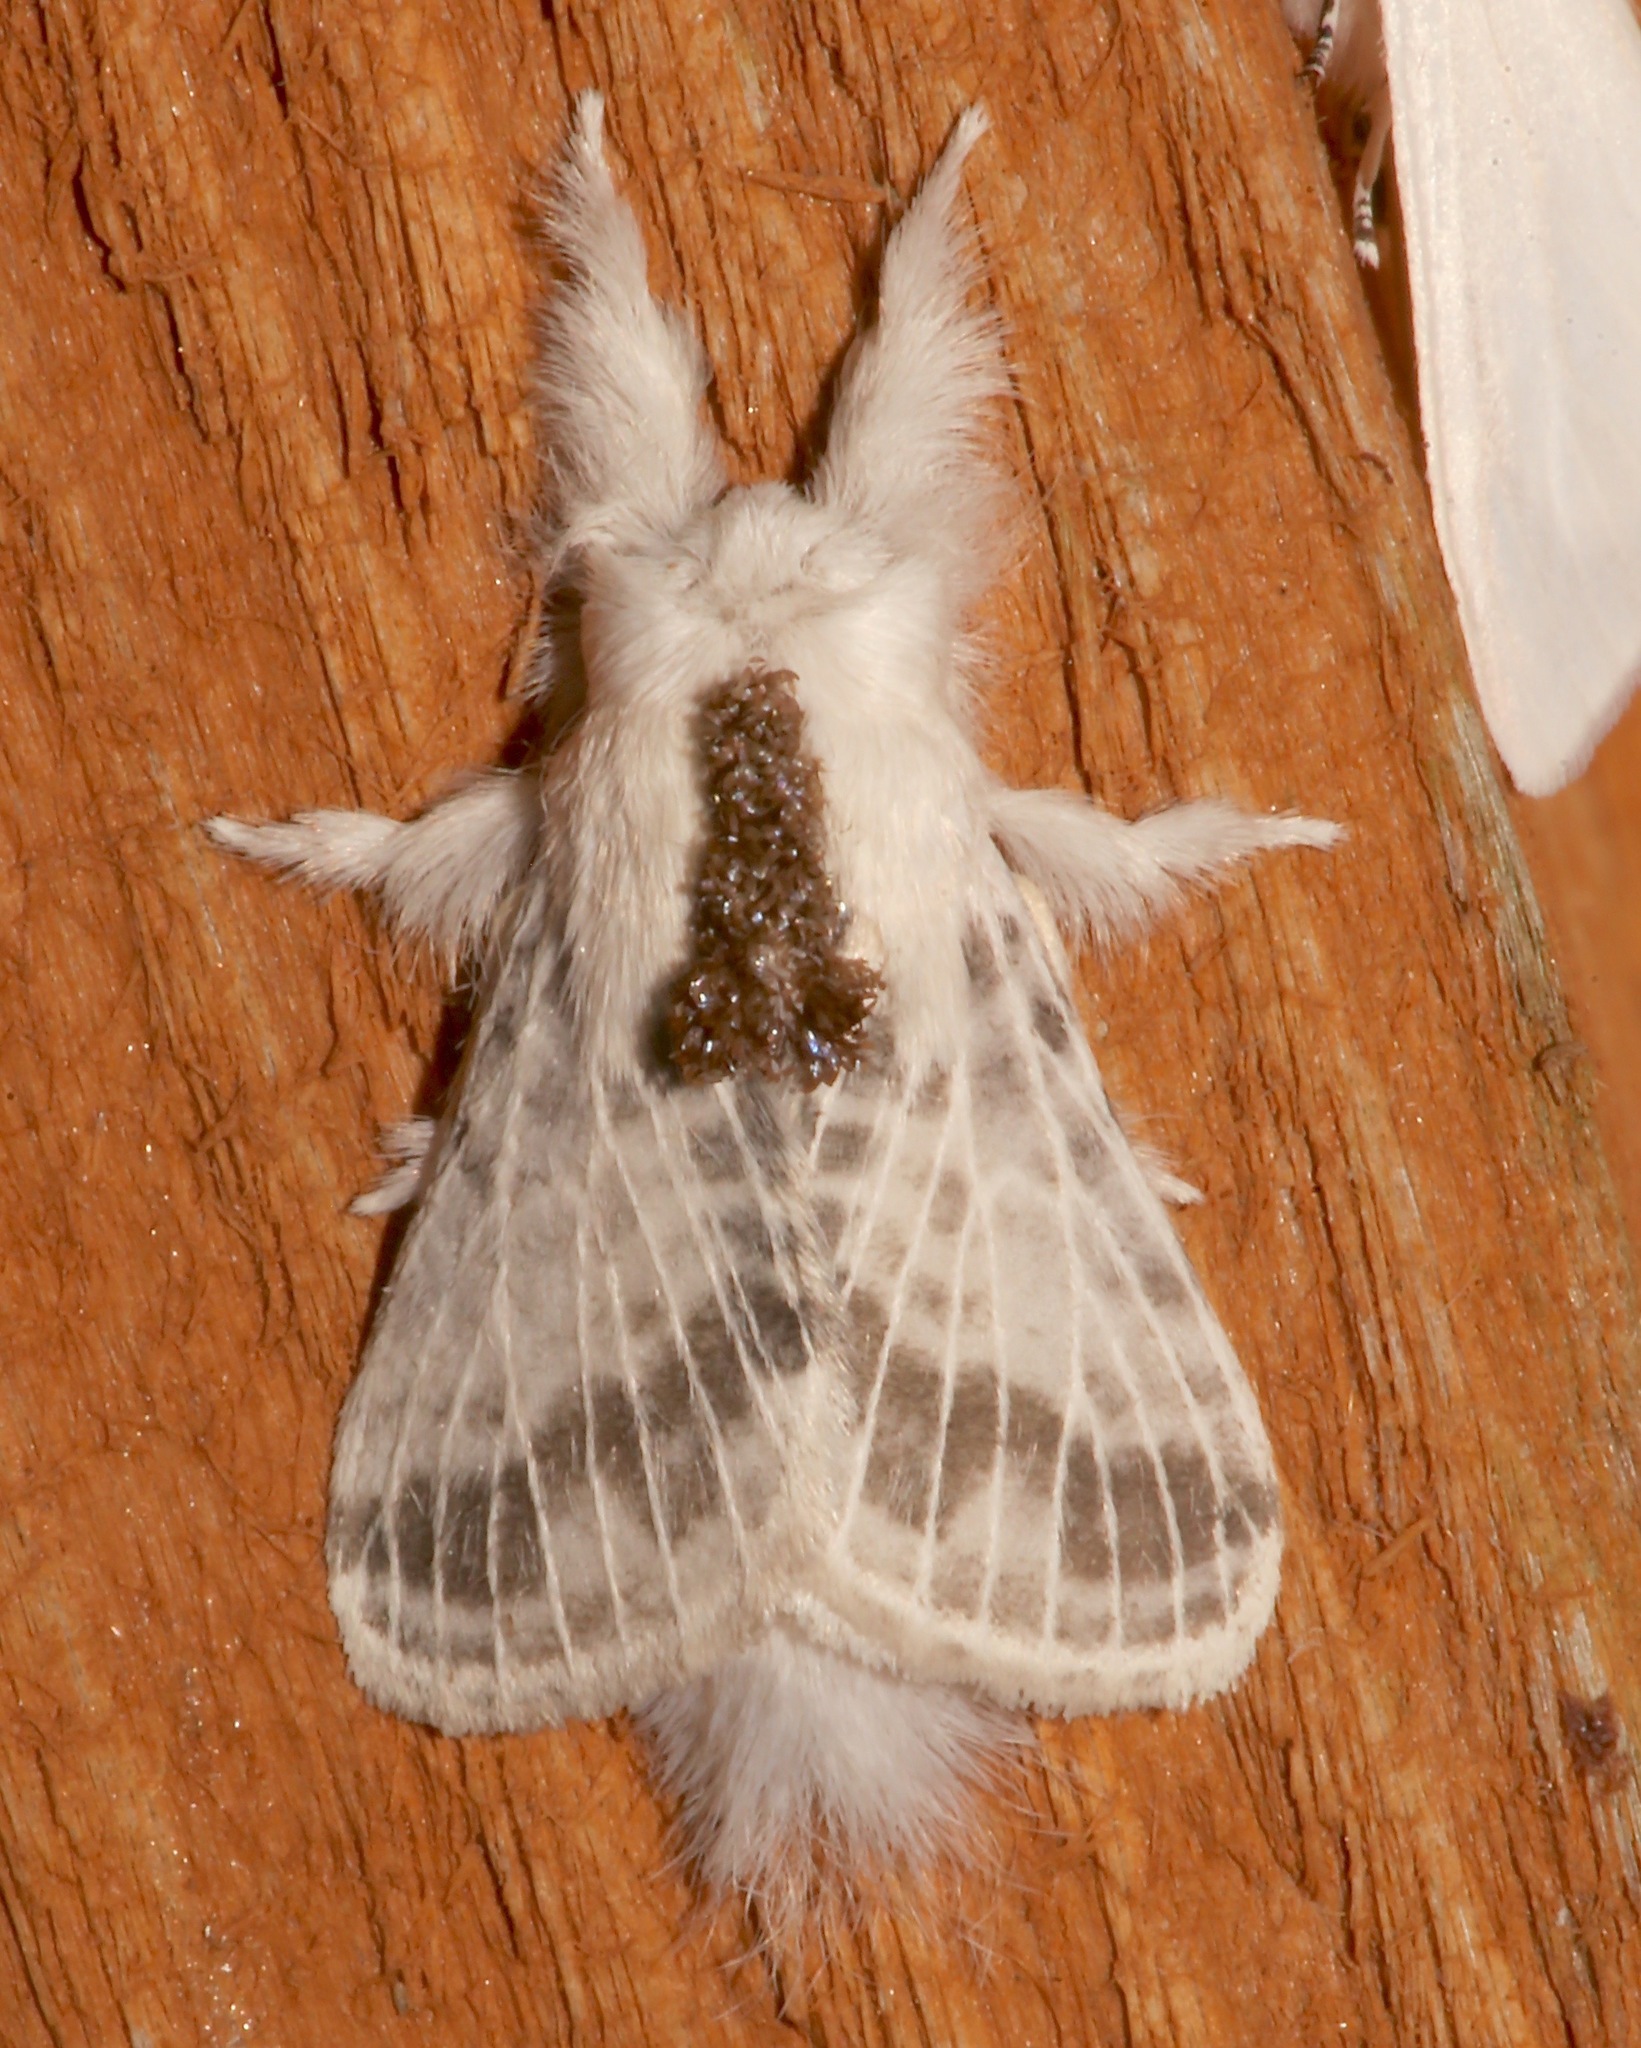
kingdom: Animalia
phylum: Arthropoda
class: Insecta
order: Lepidoptera
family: Lasiocampidae
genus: Tolype
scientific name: Tolype minta
